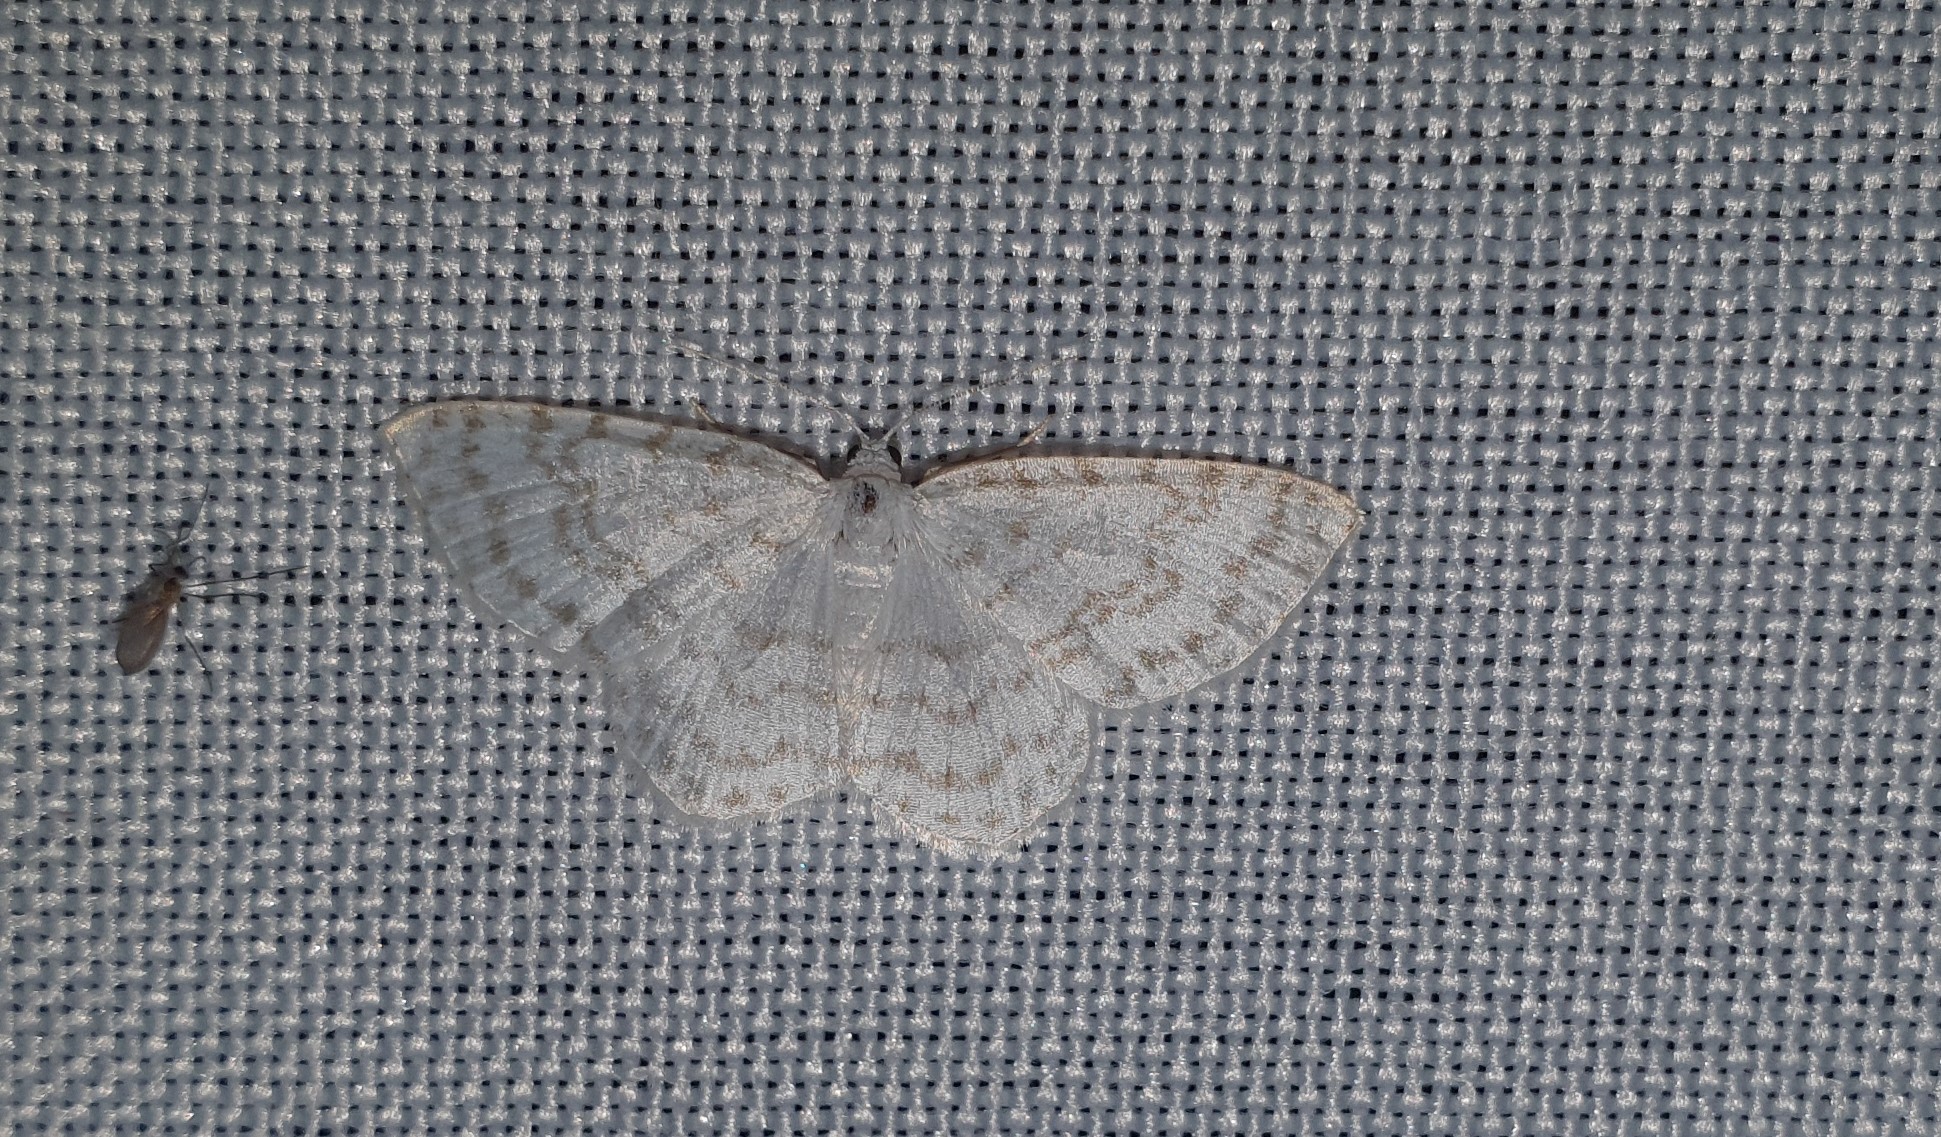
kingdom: Animalia
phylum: Arthropoda
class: Insecta
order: Lepidoptera
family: Geometridae
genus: Asthena
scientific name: Asthena albulata
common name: Small white wave
